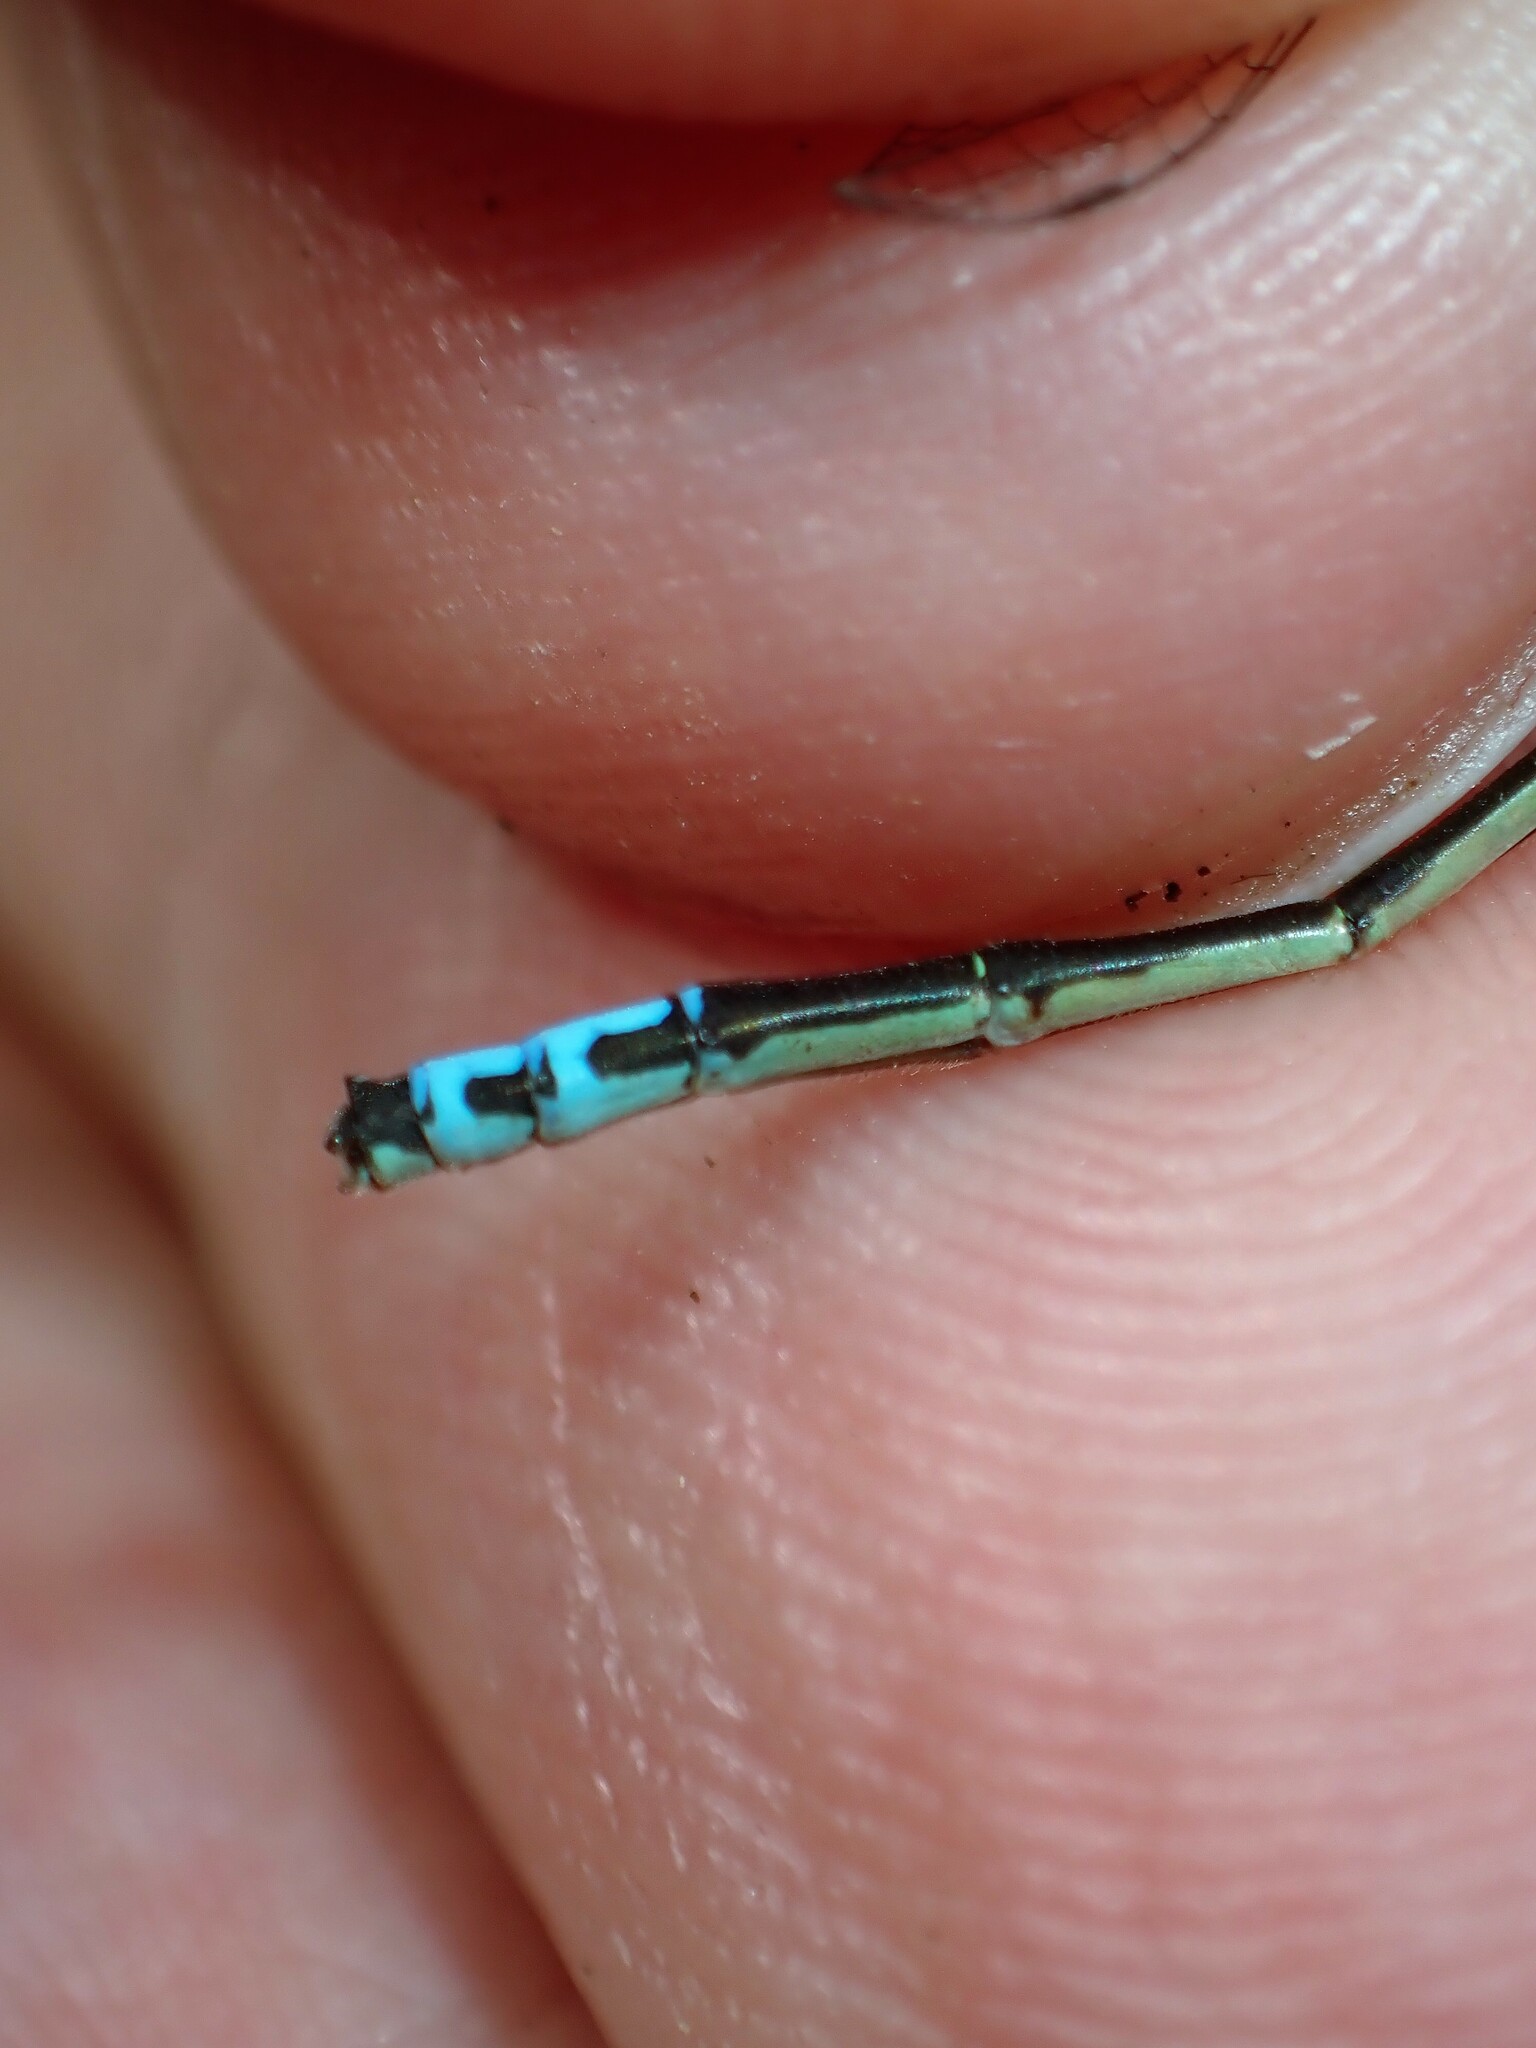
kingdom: Animalia
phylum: Arthropoda
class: Insecta
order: Odonata
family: Coenagrionidae
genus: Ischnura
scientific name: Ischnura verticalis
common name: Eastern forktail
